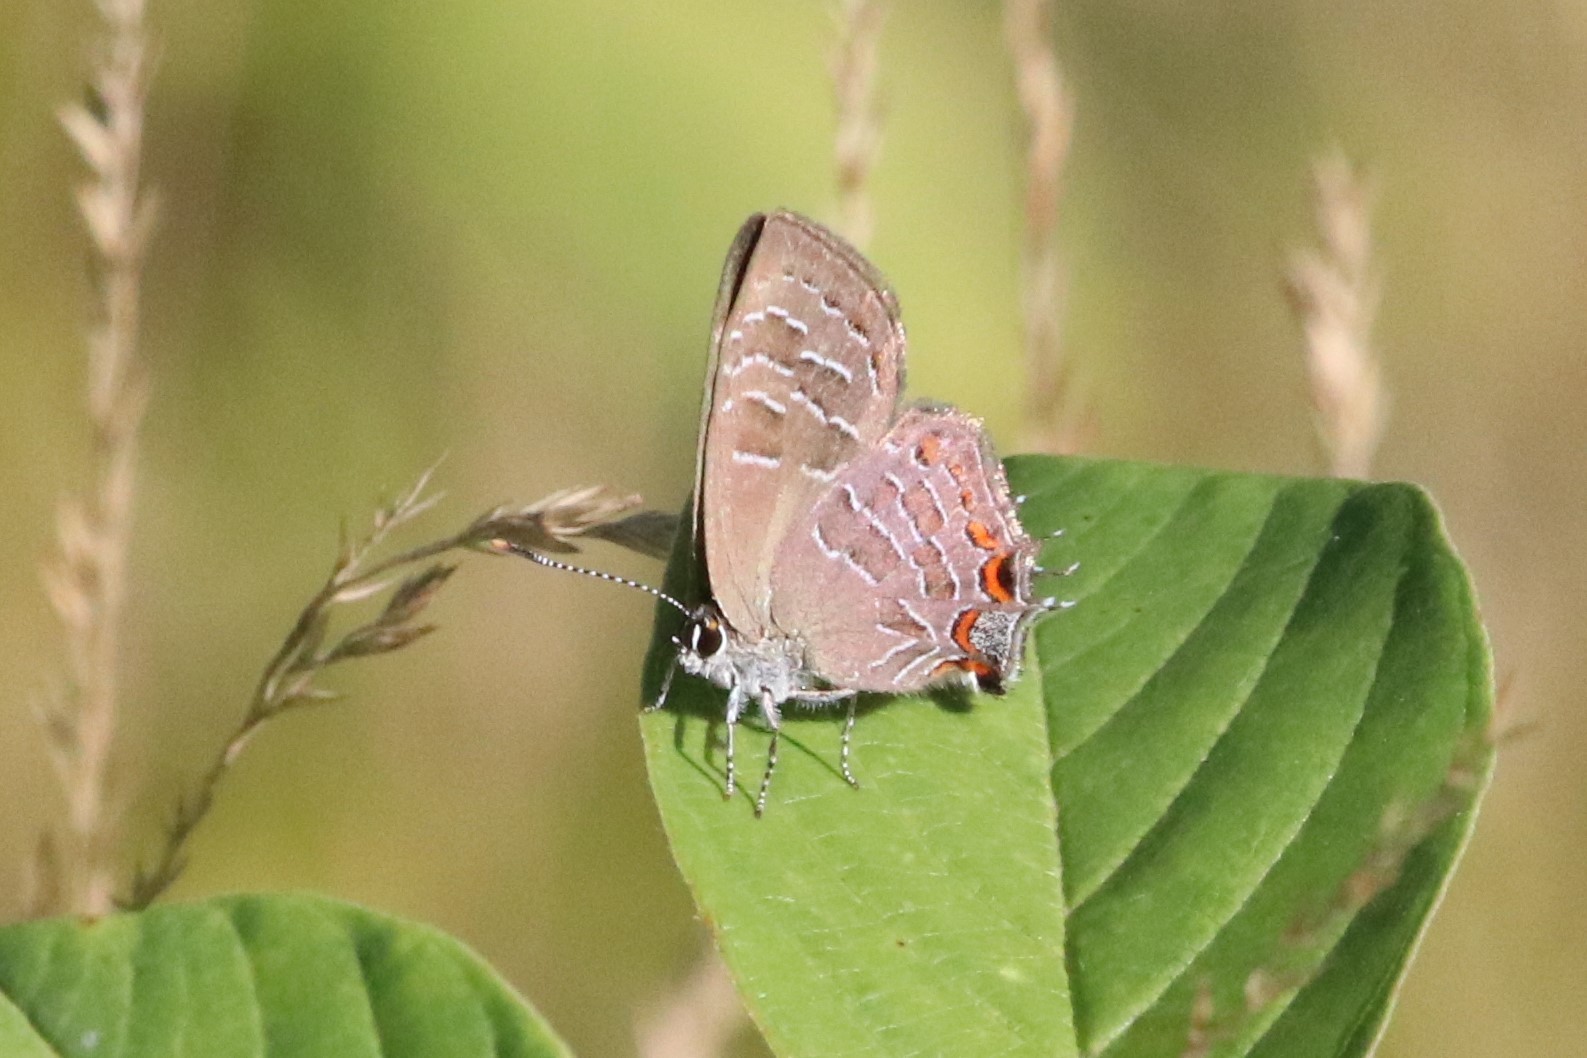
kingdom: Animalia
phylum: Arthropoda
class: Insecta
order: Lepidoptera
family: Lycaenidae
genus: Satyrium
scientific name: Satyrium liparops
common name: Striped hairstreak
